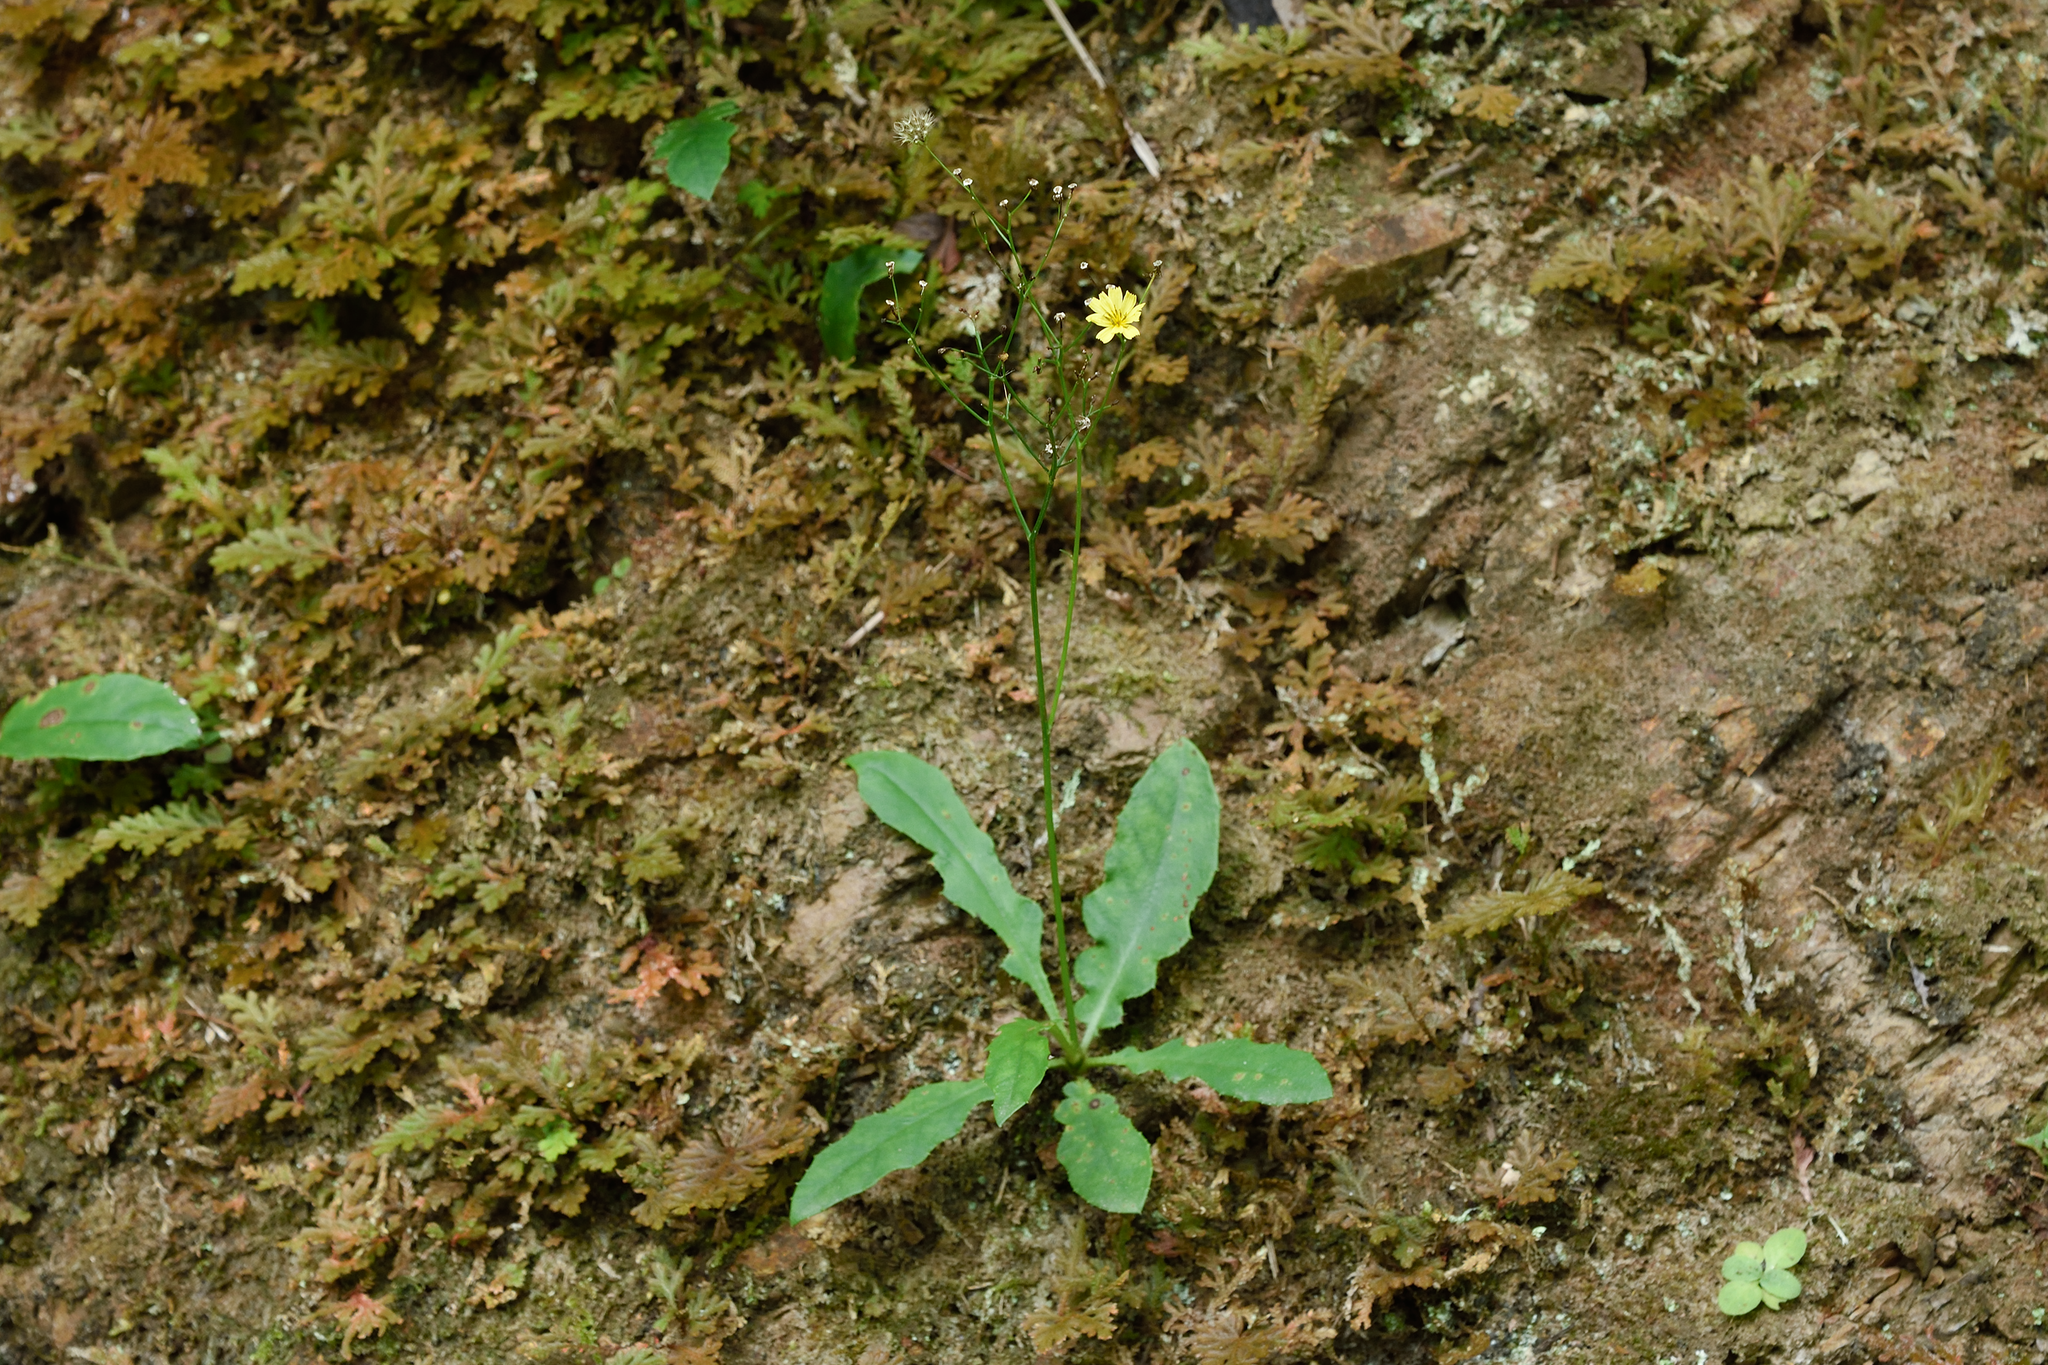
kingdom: Plantae
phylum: Tracheophyta
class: Magnoliopsida
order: Asterales
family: Asteraceae
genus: Ixeridium
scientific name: Ixeridium laevigatum
